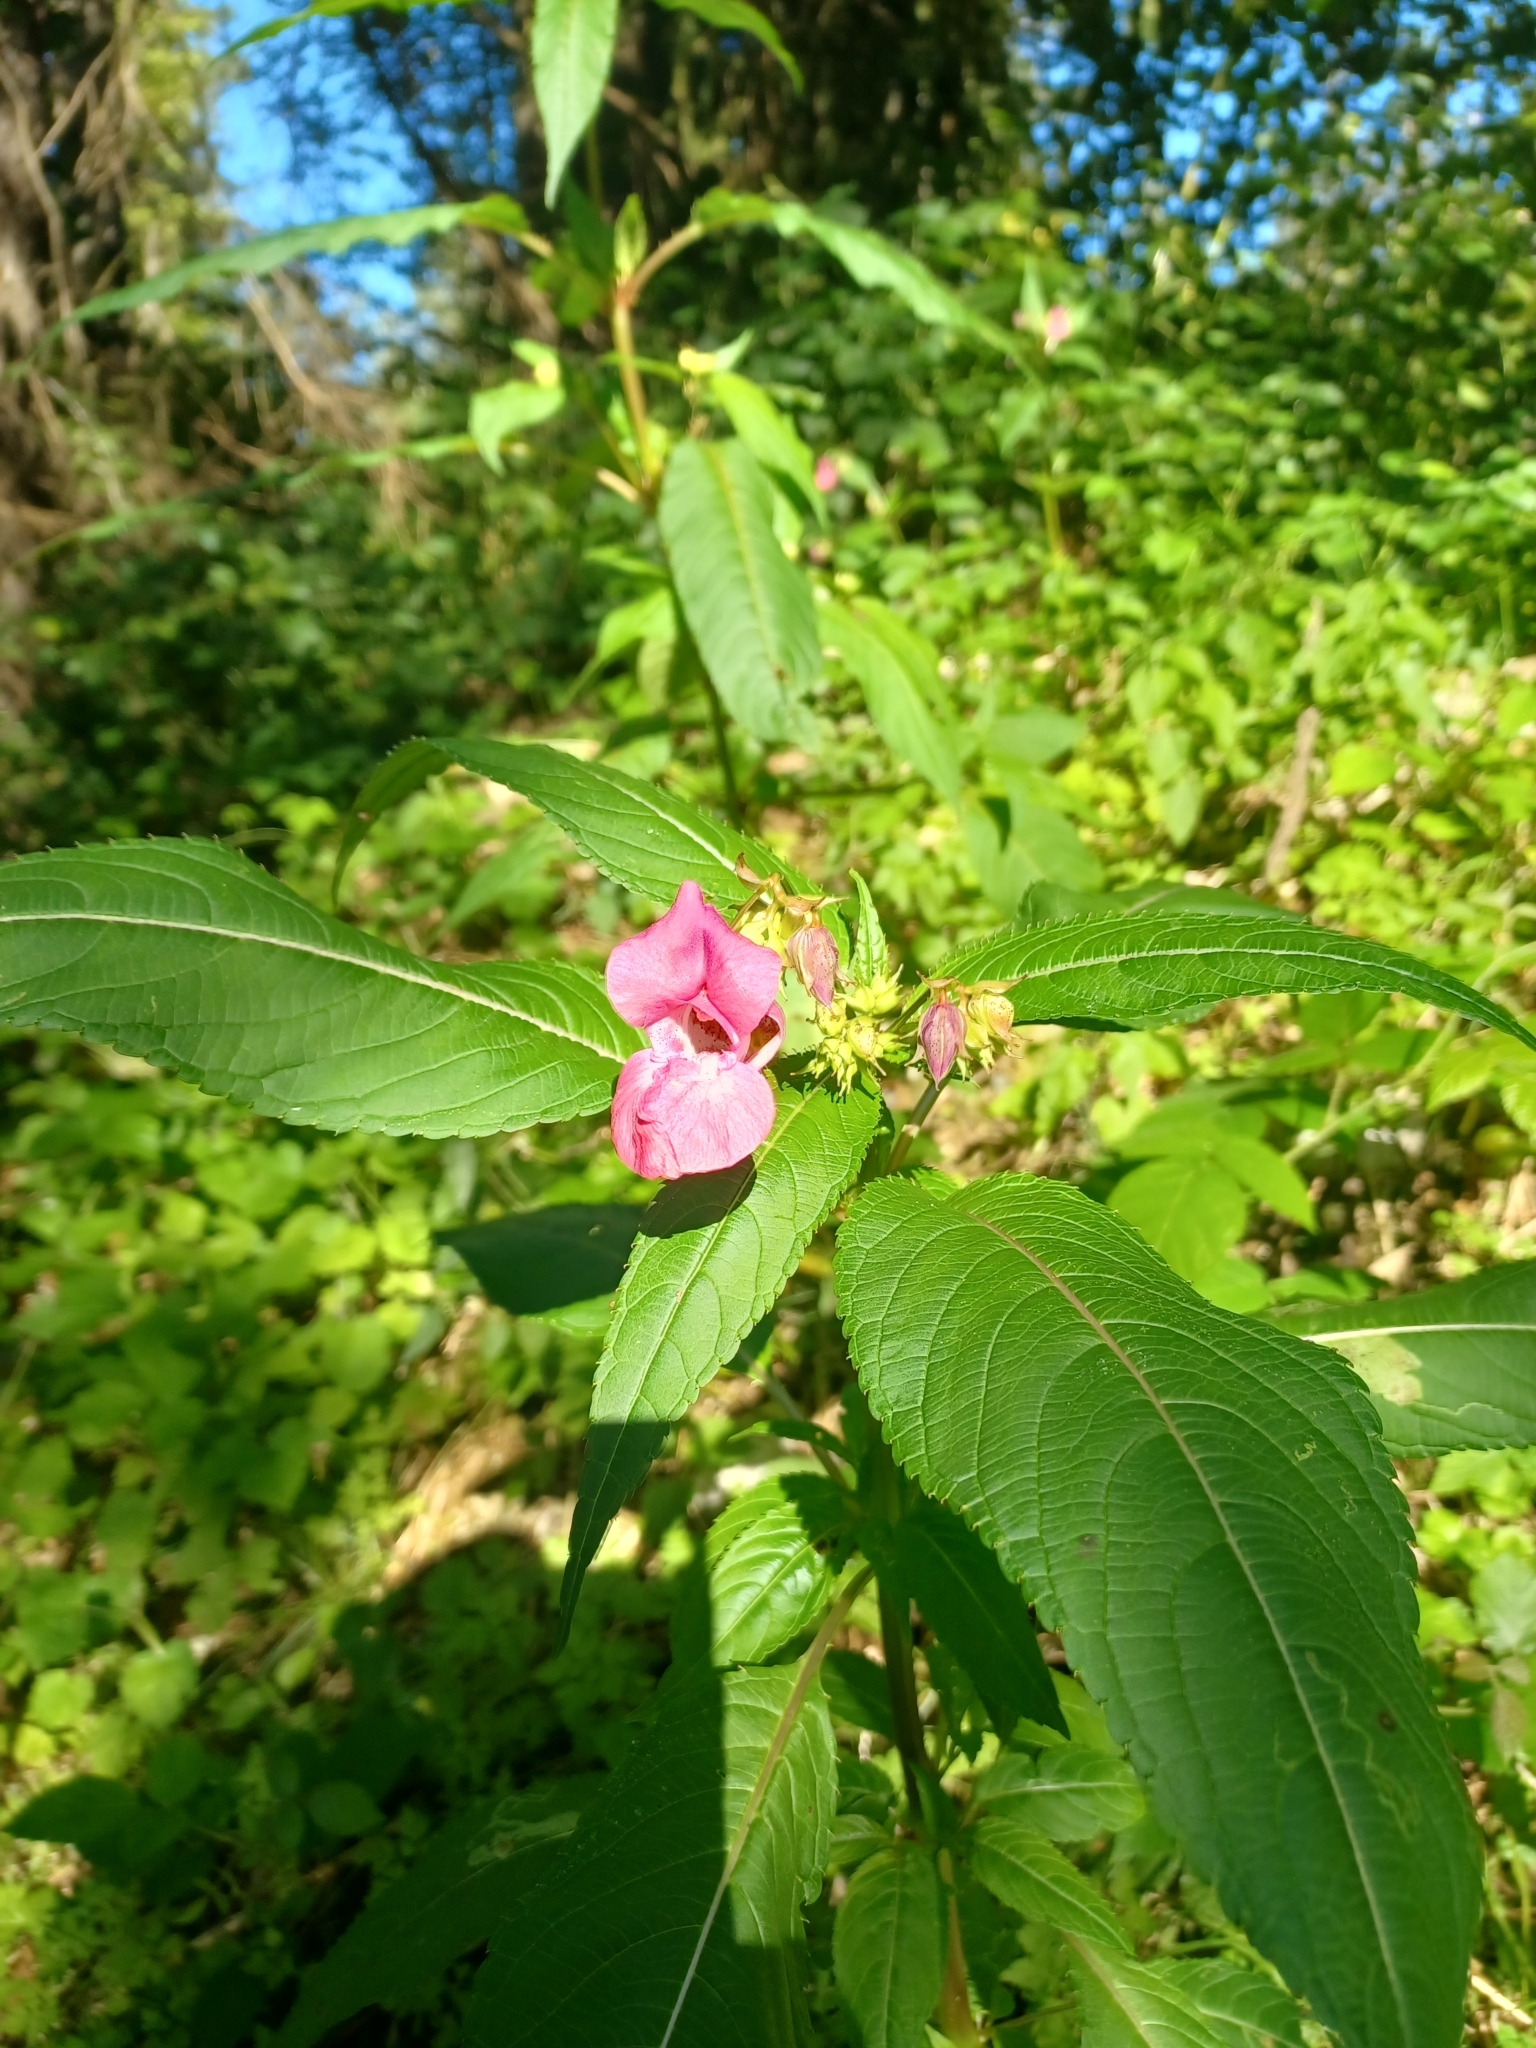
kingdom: Plantae
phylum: Tracheophyta
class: Magnoliopsida
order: Ericales
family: Balsaminaceae
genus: Impatiens
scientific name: Impatiens glandulifera
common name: Himalayan balsam
